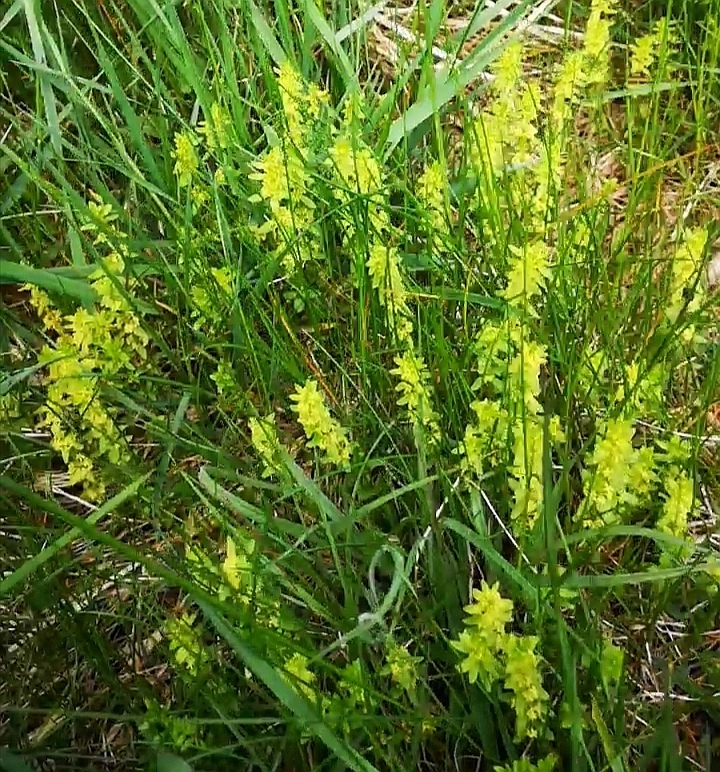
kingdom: Plantae
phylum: Tracheophyta
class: Magnoliopsida
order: Gentianales
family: Rubiaceae
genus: Cruciata
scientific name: Cruciata glabra
